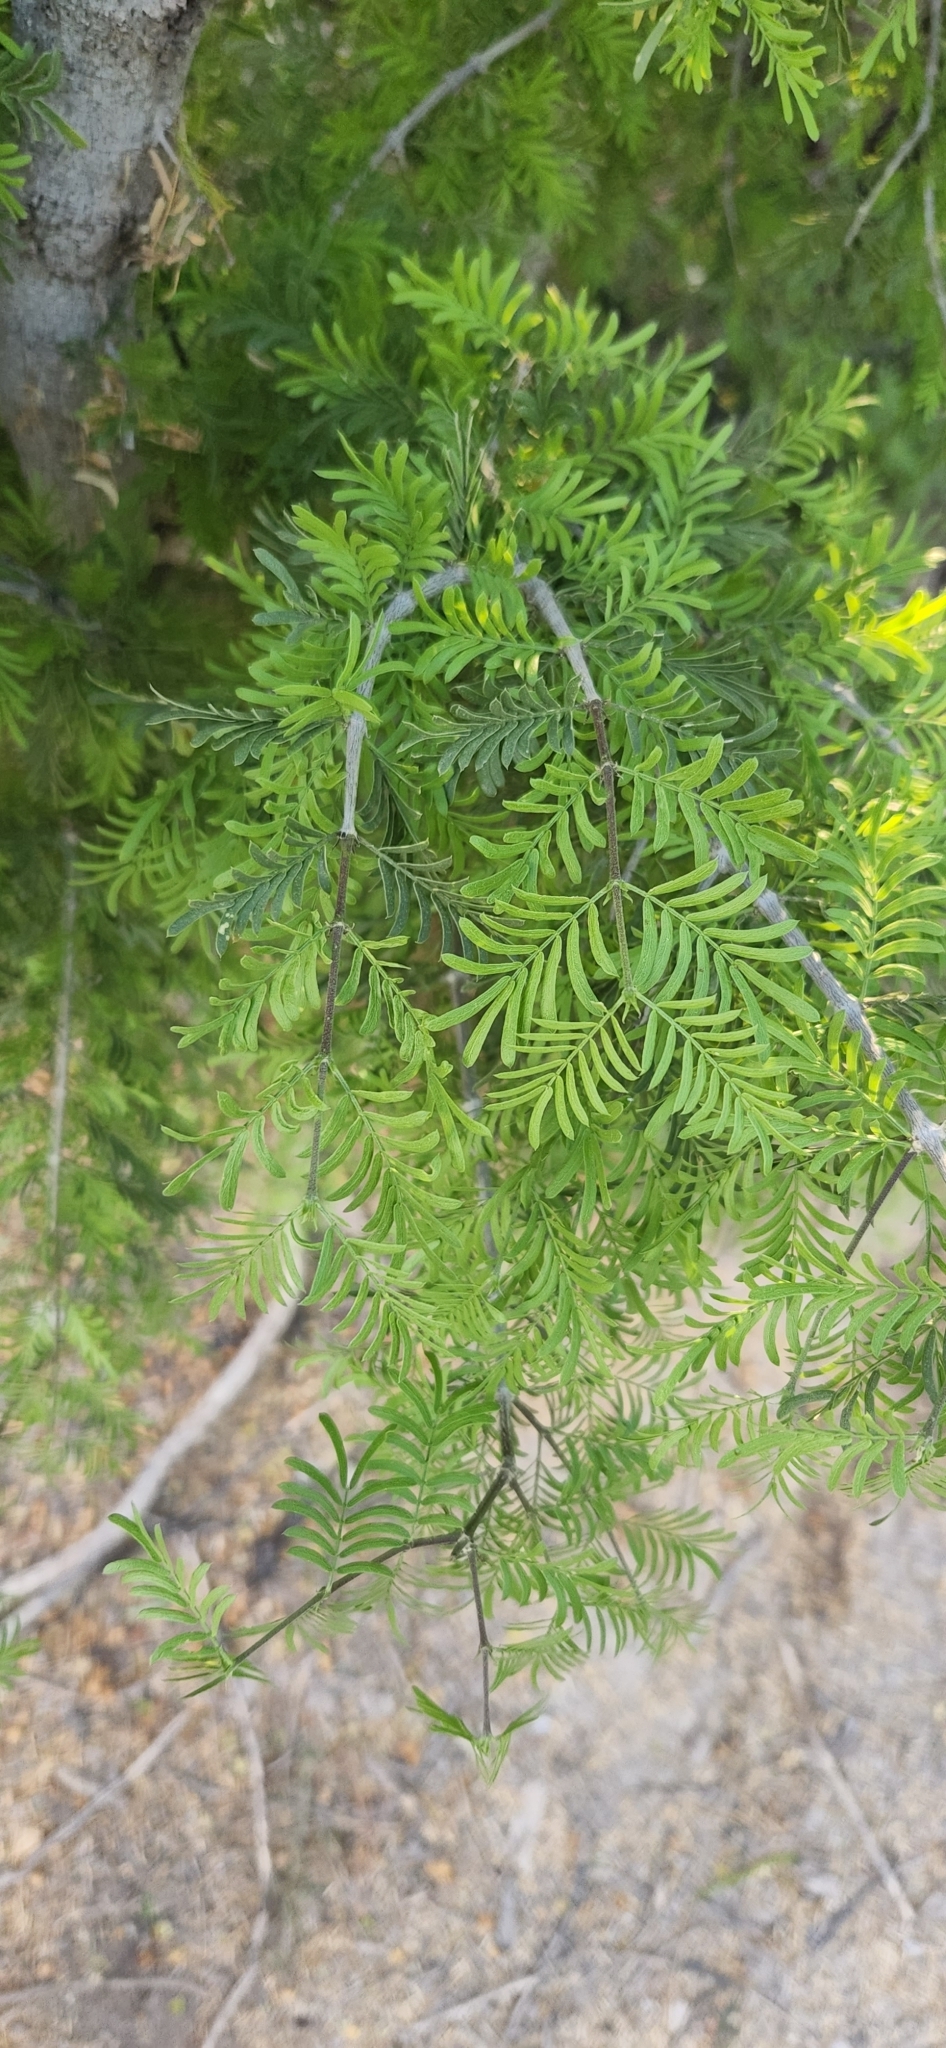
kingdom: Plantae
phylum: Tracheophyta
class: Magnoliopsida
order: Zygophyllales
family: Zygophyllaceae
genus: Porlieria
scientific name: Porlieria angustifolia
